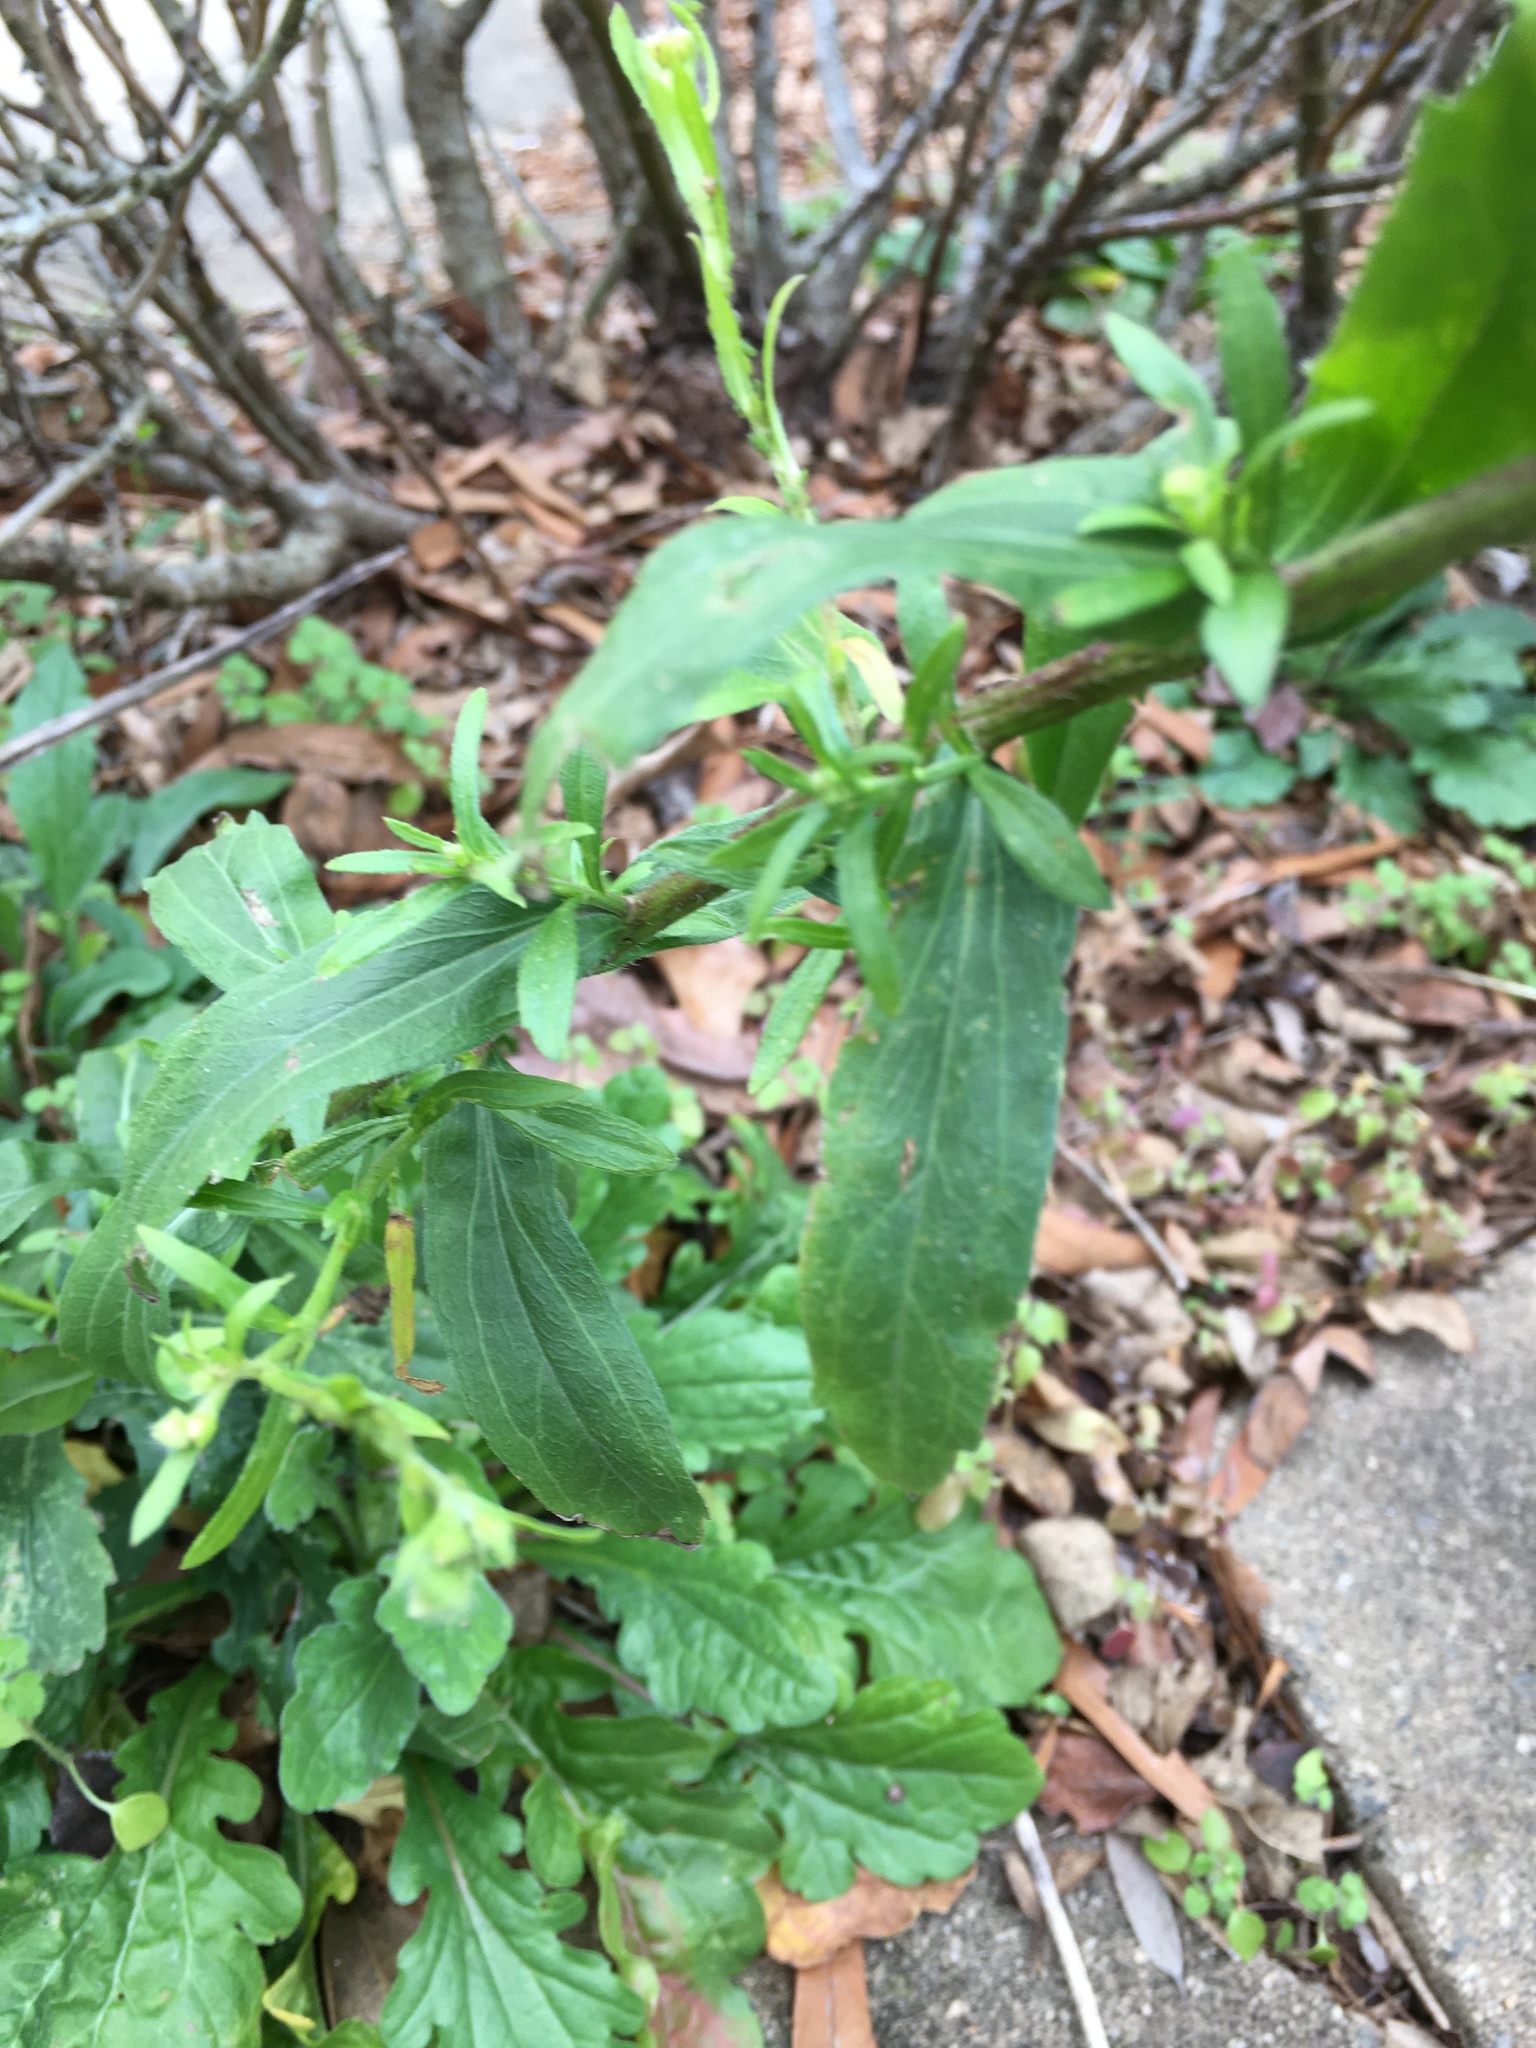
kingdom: Plantae
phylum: Tracheophyta
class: Magnoliopsida
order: Asterales
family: Asteraceae
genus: Erigeron
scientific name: Erigeron annuus
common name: Tall fleabane
